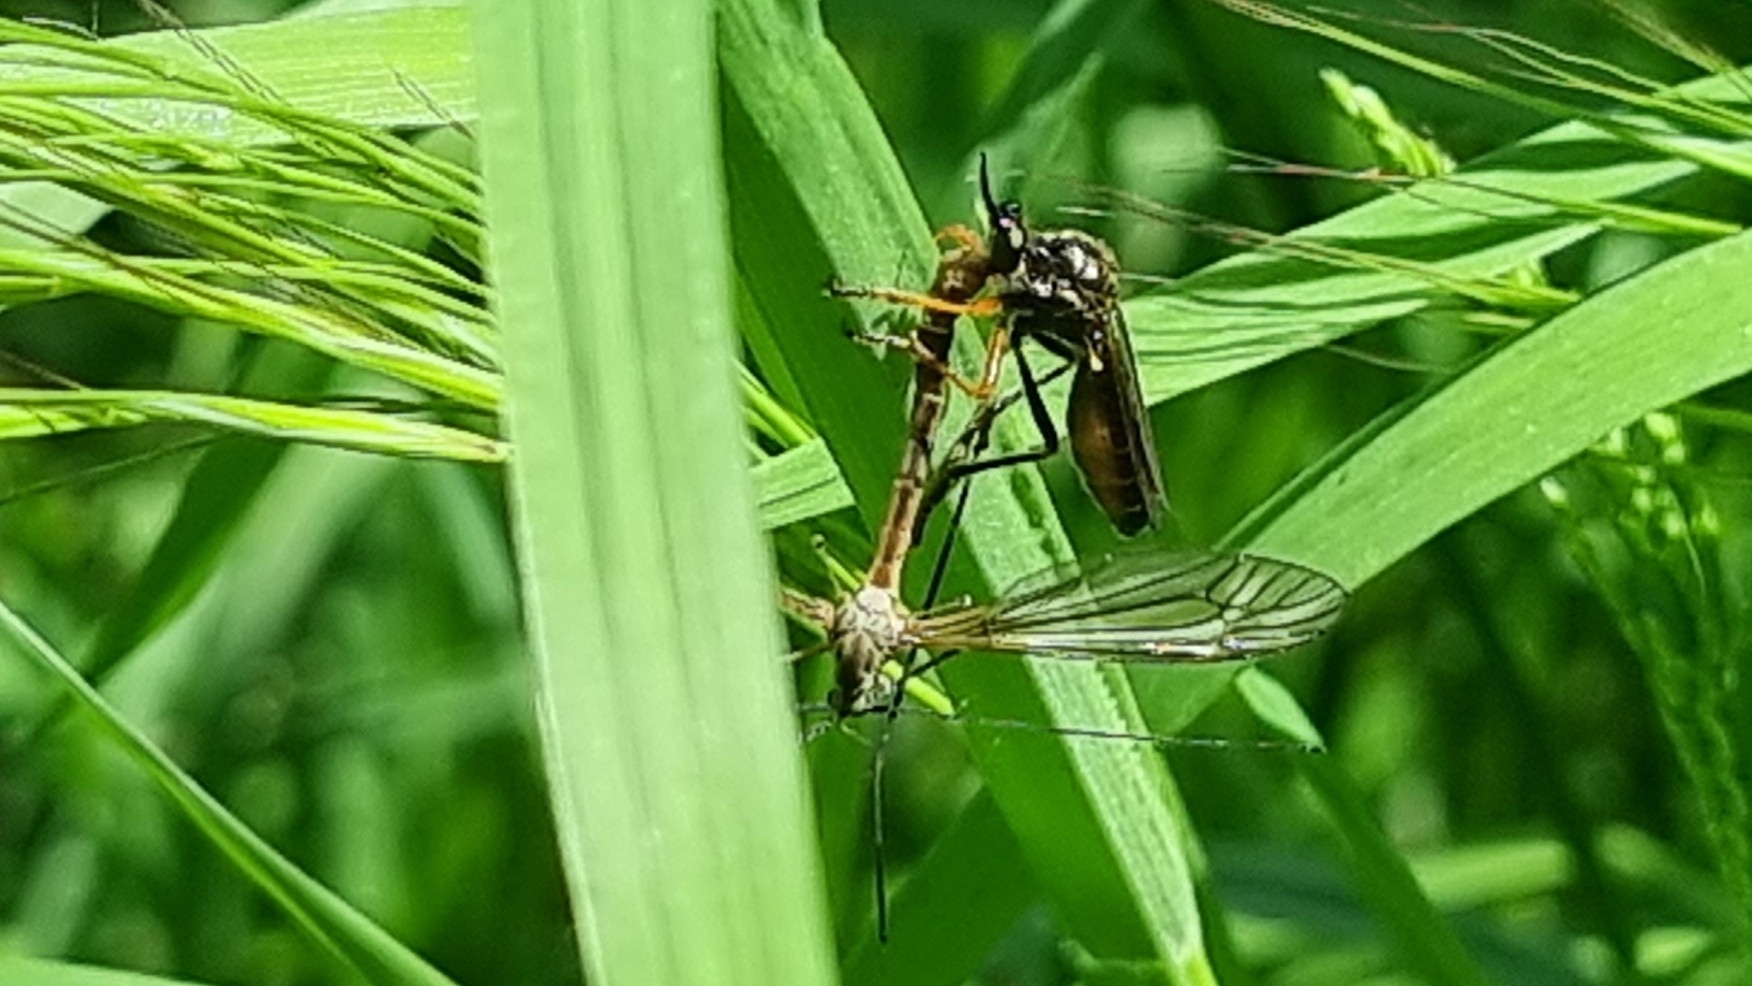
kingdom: Animalia
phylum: Arthropoda
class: Insecta
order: Diptera
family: Asilidae
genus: Dioctria
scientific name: Dioctria rufipes
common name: Common red-legged robberfly
